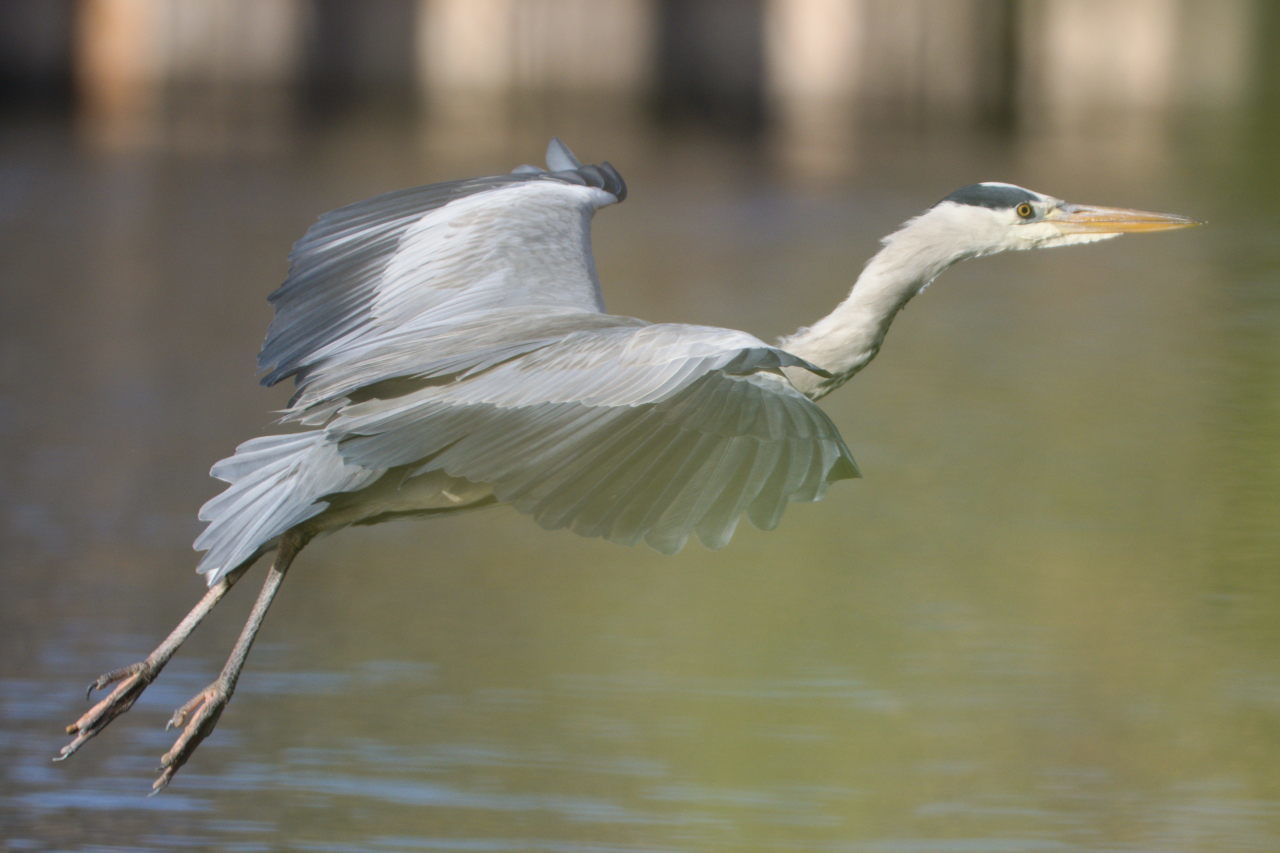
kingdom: Animalia
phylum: Chordata
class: Aves
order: Pelecaniformes
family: Ardeidae
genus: Ardea
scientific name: Ardea cinerea
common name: Grey heron
